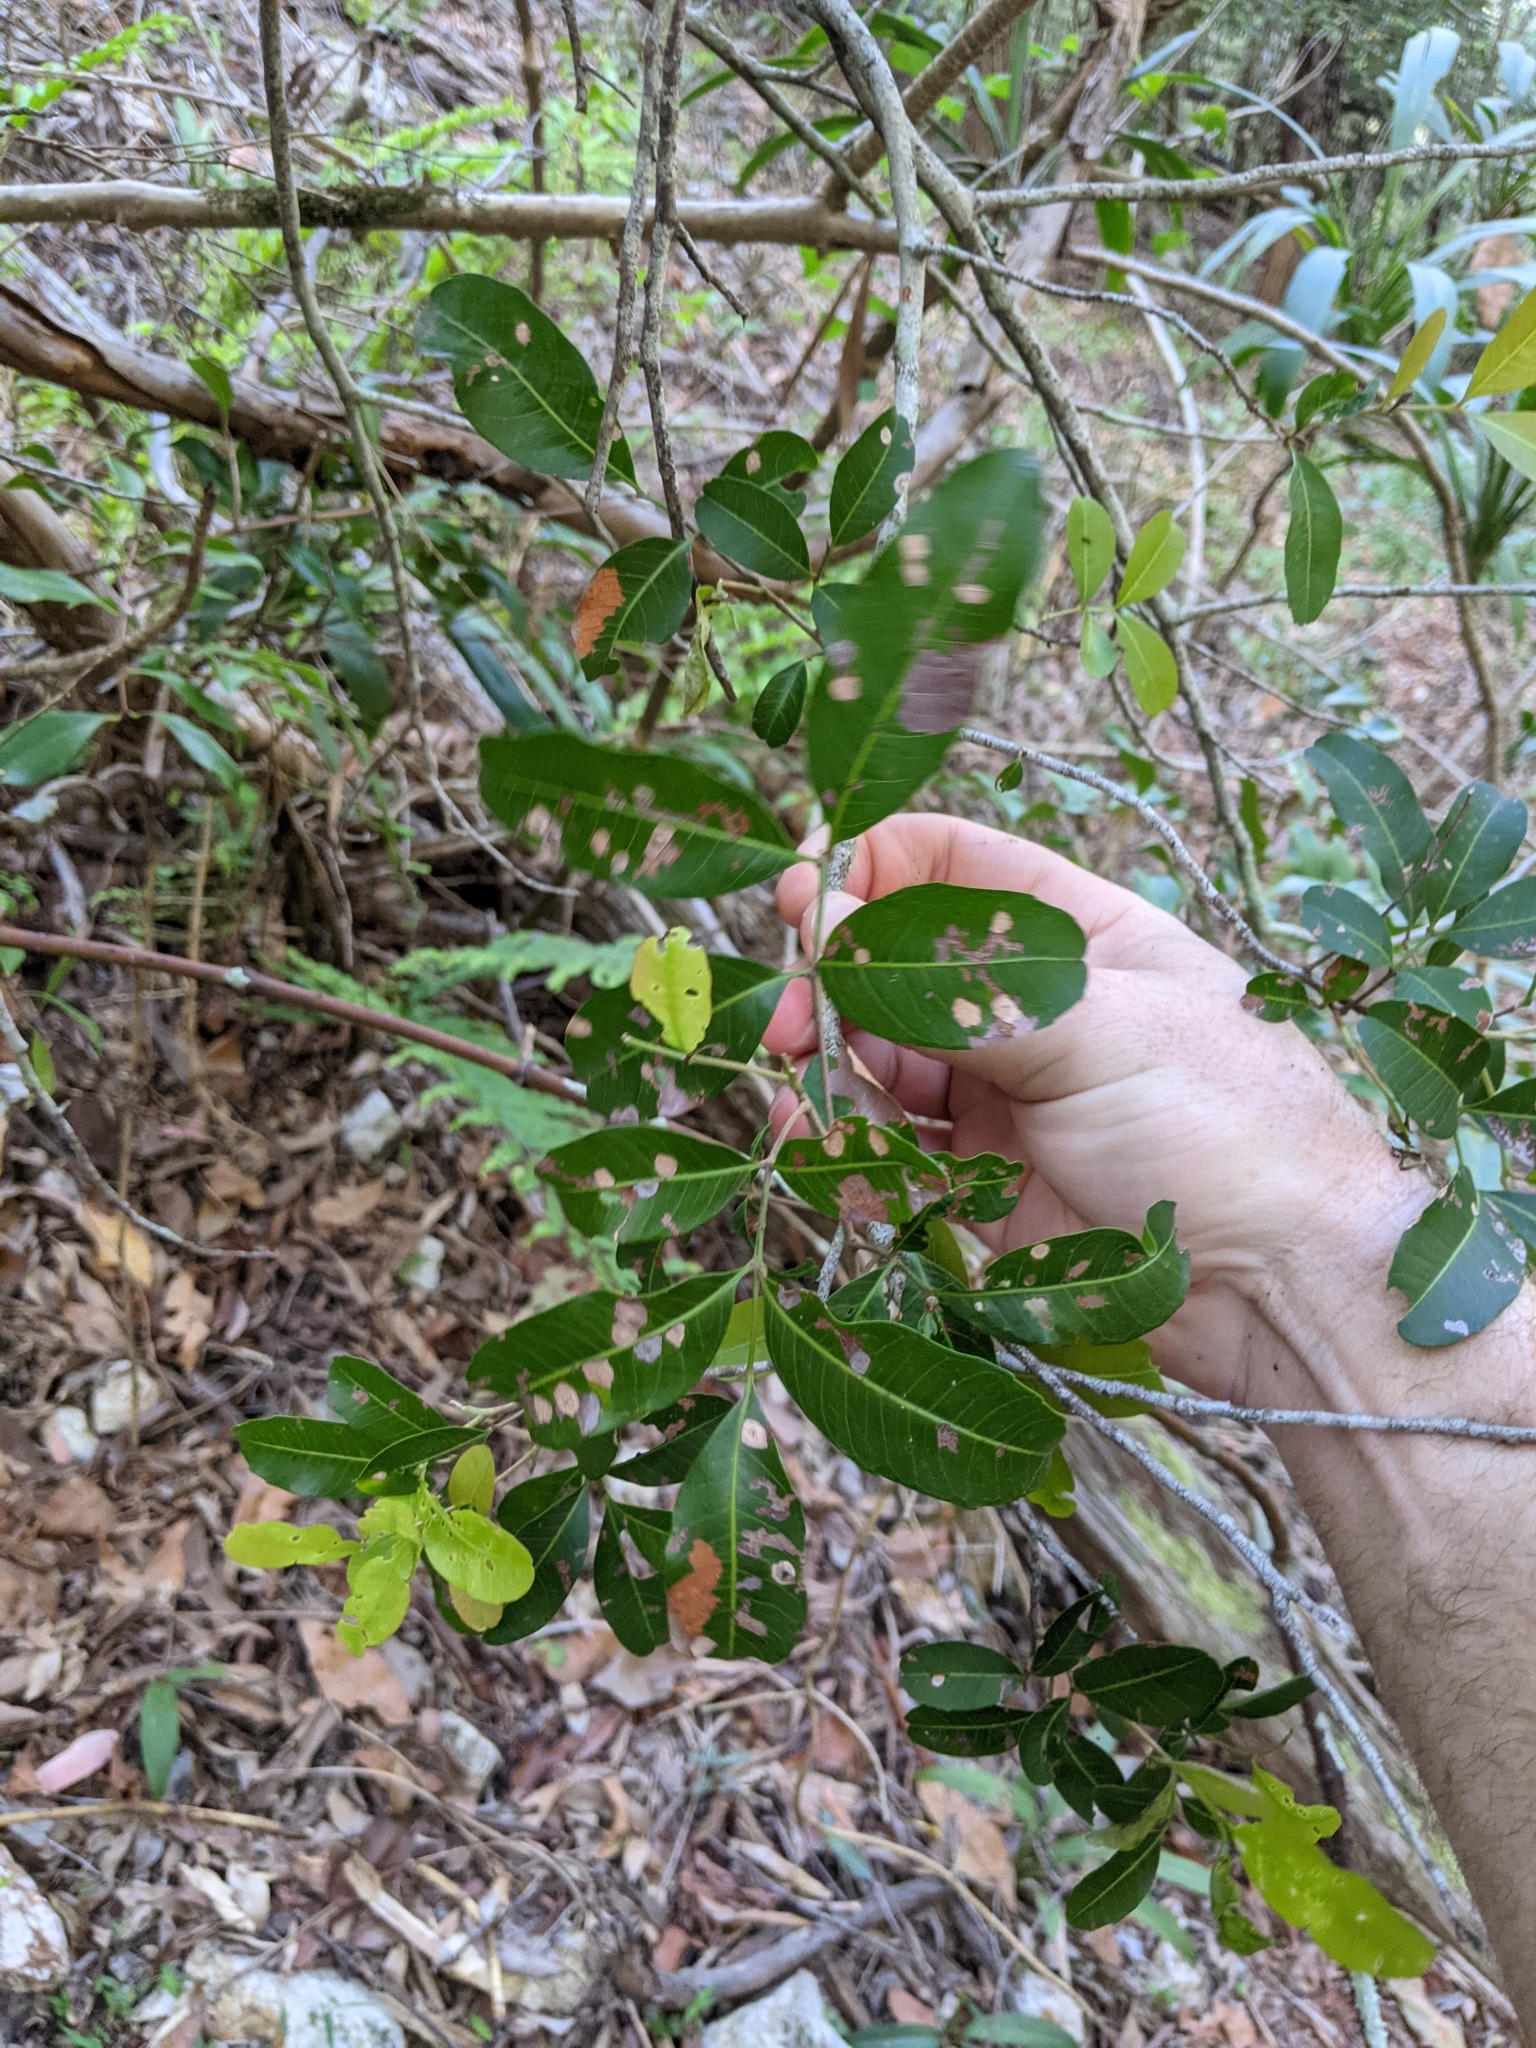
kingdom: Plantae
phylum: Tracheophyta
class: Magnoliopsida
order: Sapindales
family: Sapindaceae
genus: Cupaniopsis
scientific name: Cupaniopsis parvifolia
